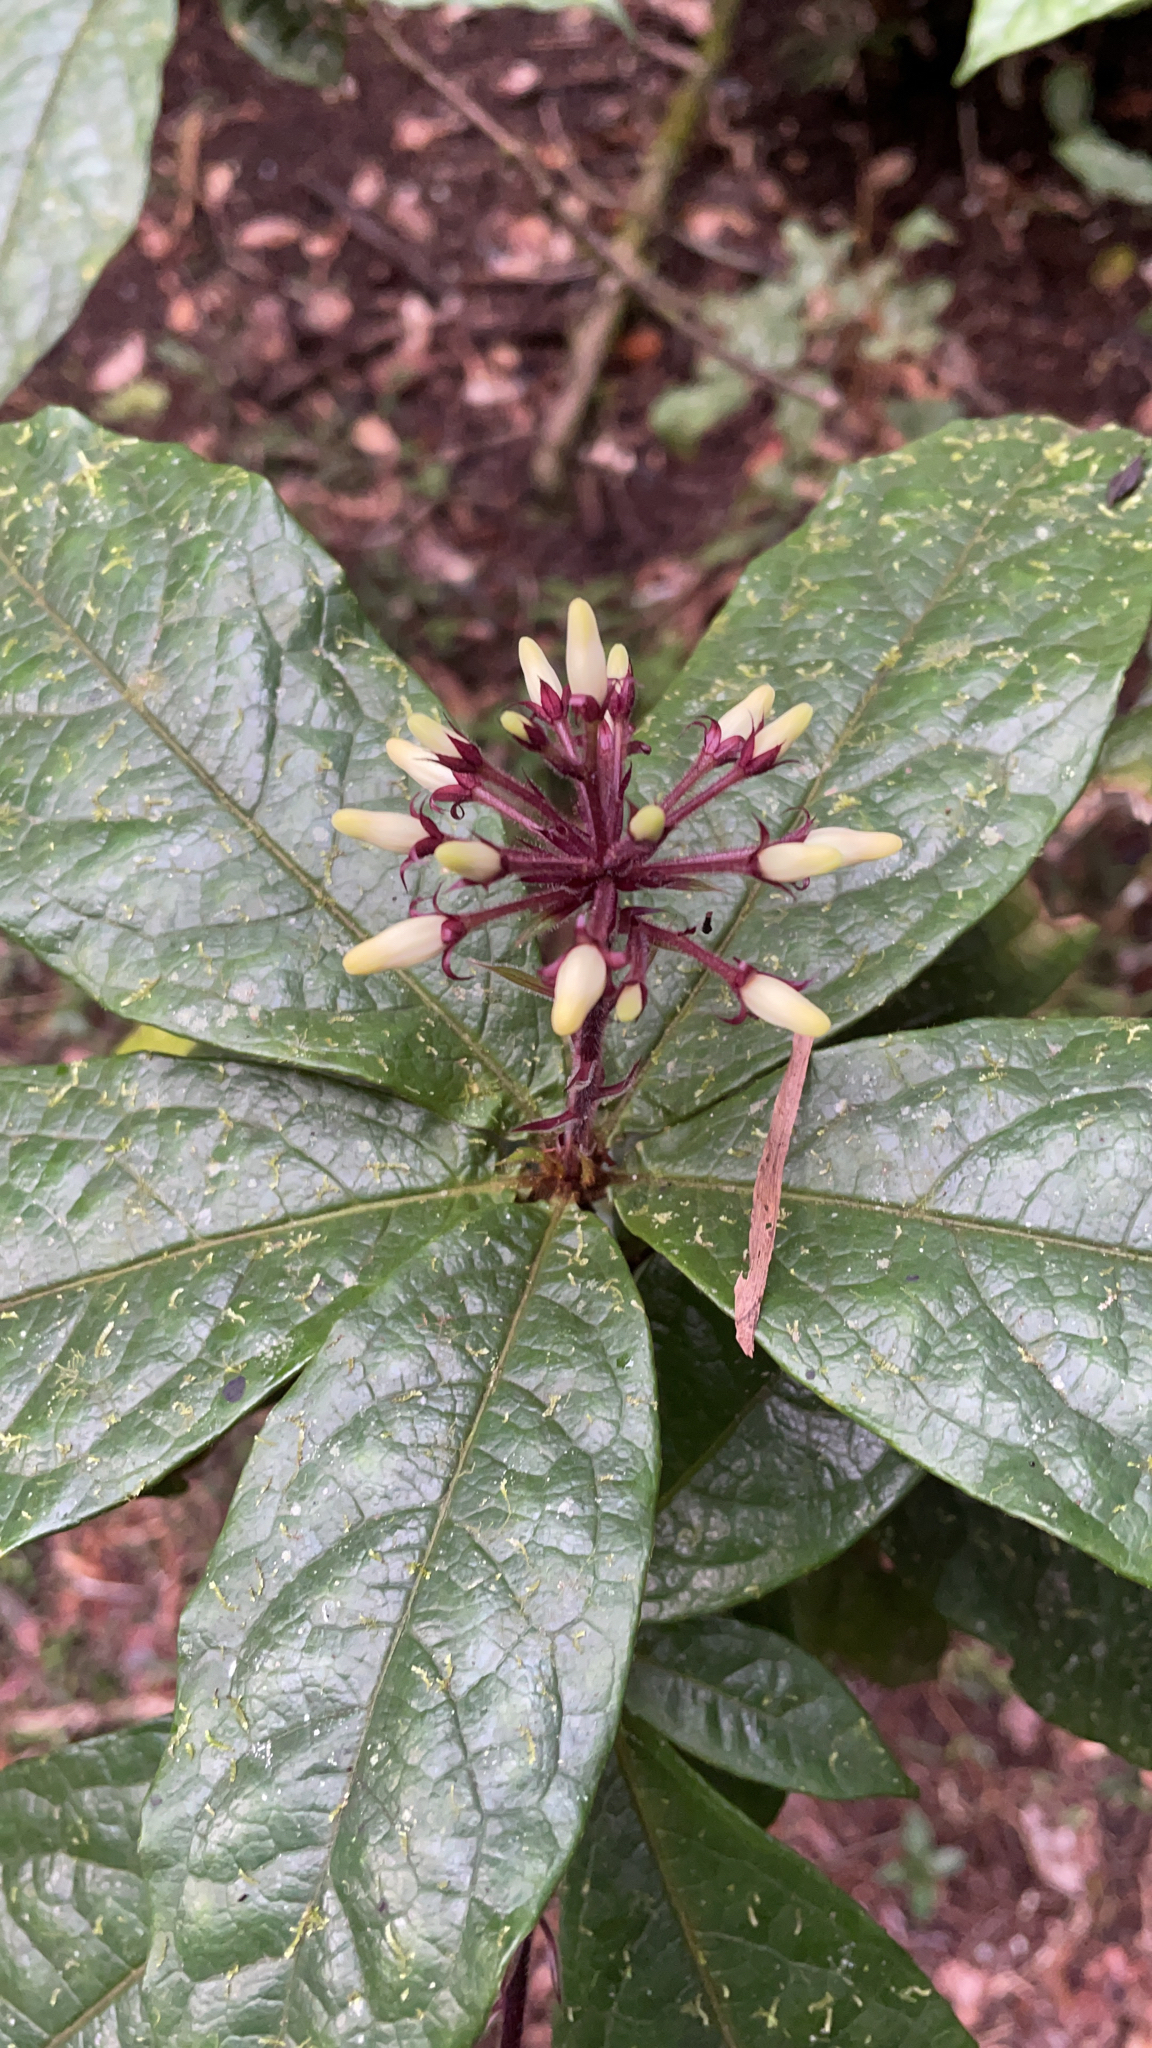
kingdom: Plantae
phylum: Tracheophyta
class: Magnoliopsida
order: Apiales
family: Pittosporaceae
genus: Pittosporum
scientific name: Pittosporum rubiginosum
